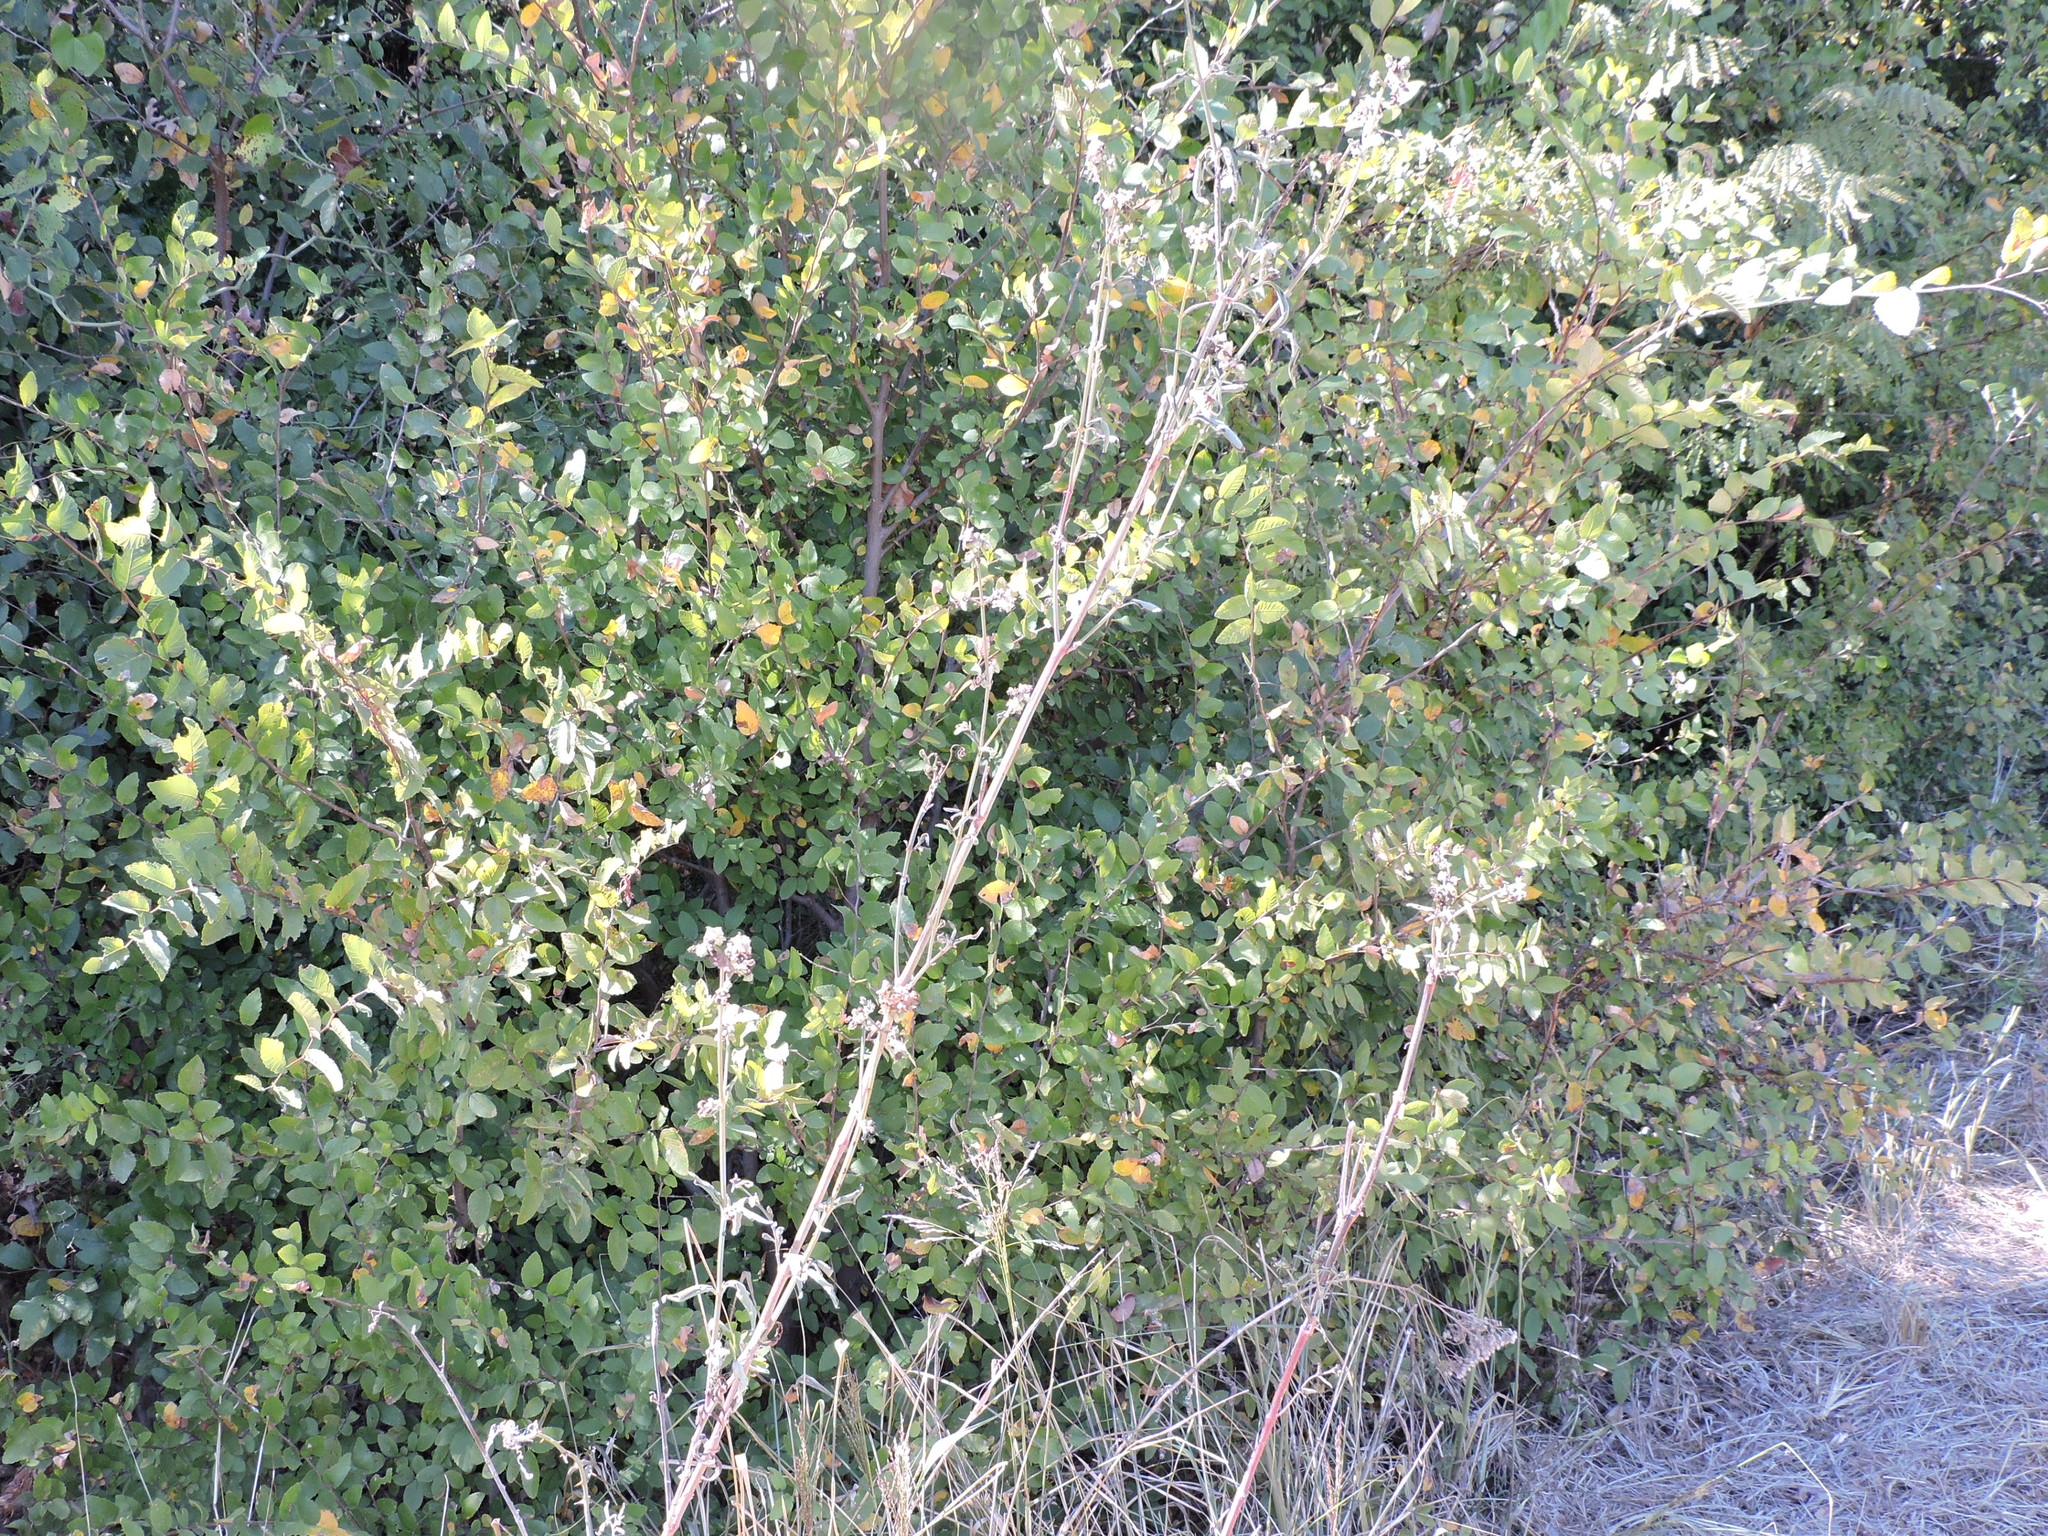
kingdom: Plantae
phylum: Tracheophyta
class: Magnoliopsida
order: Caryophyllales
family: Nyctaginaceae
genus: Mirabilis
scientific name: Mirabilis albida
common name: Hairy four-o'clock
